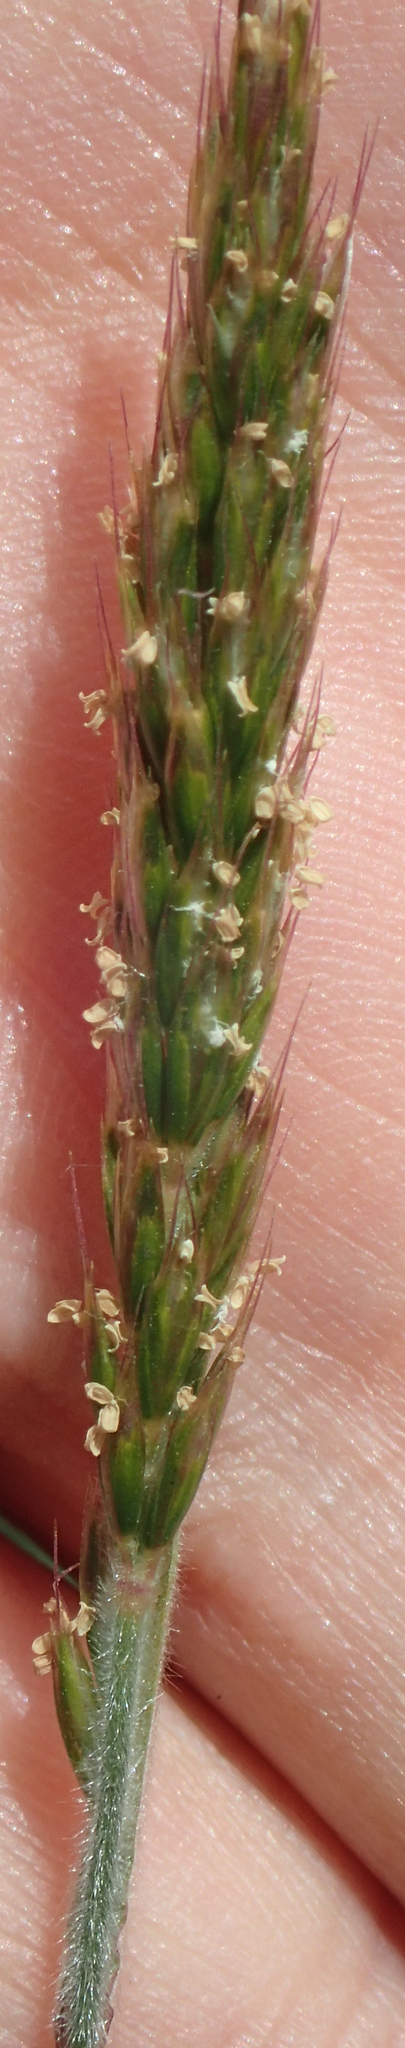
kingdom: Plantae
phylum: Tracheophyta
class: Liliopsida
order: Poales
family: Poaceae
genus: Koeleria
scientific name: Koeleria spicata
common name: Mountain trisetum
